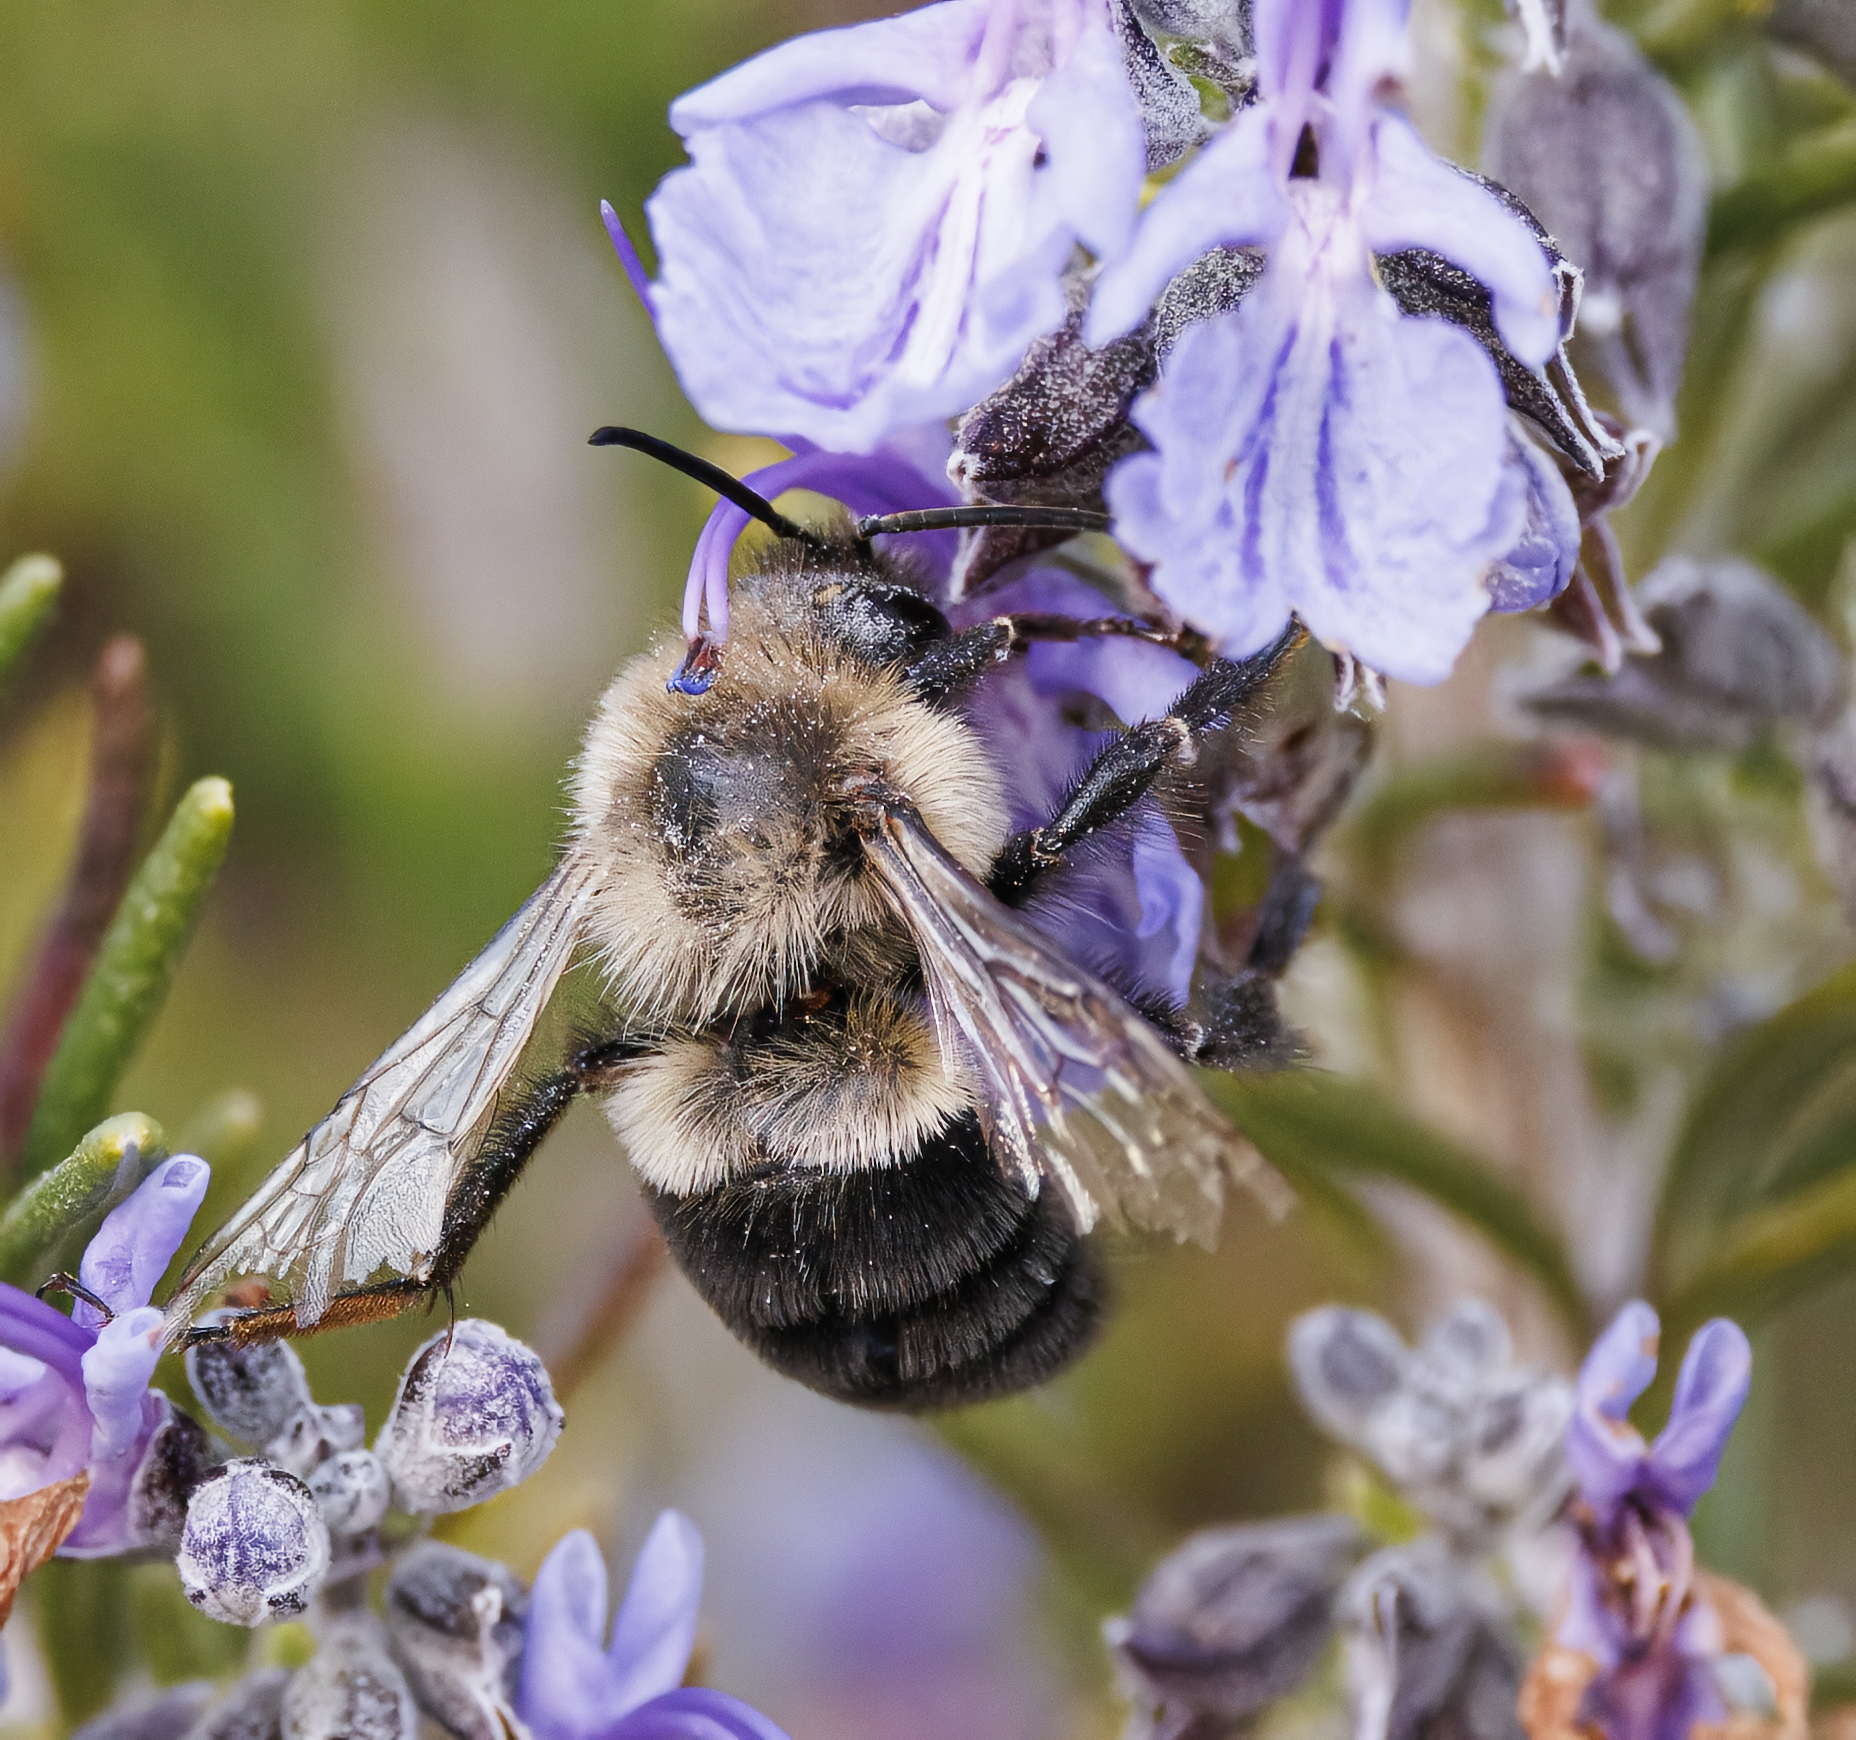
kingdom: Animalia
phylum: Arthropoda
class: Insecta
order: Hymenoptera
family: Apidae
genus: Bombus
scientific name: Bombus impatiens
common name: Common eastern bumble bee
